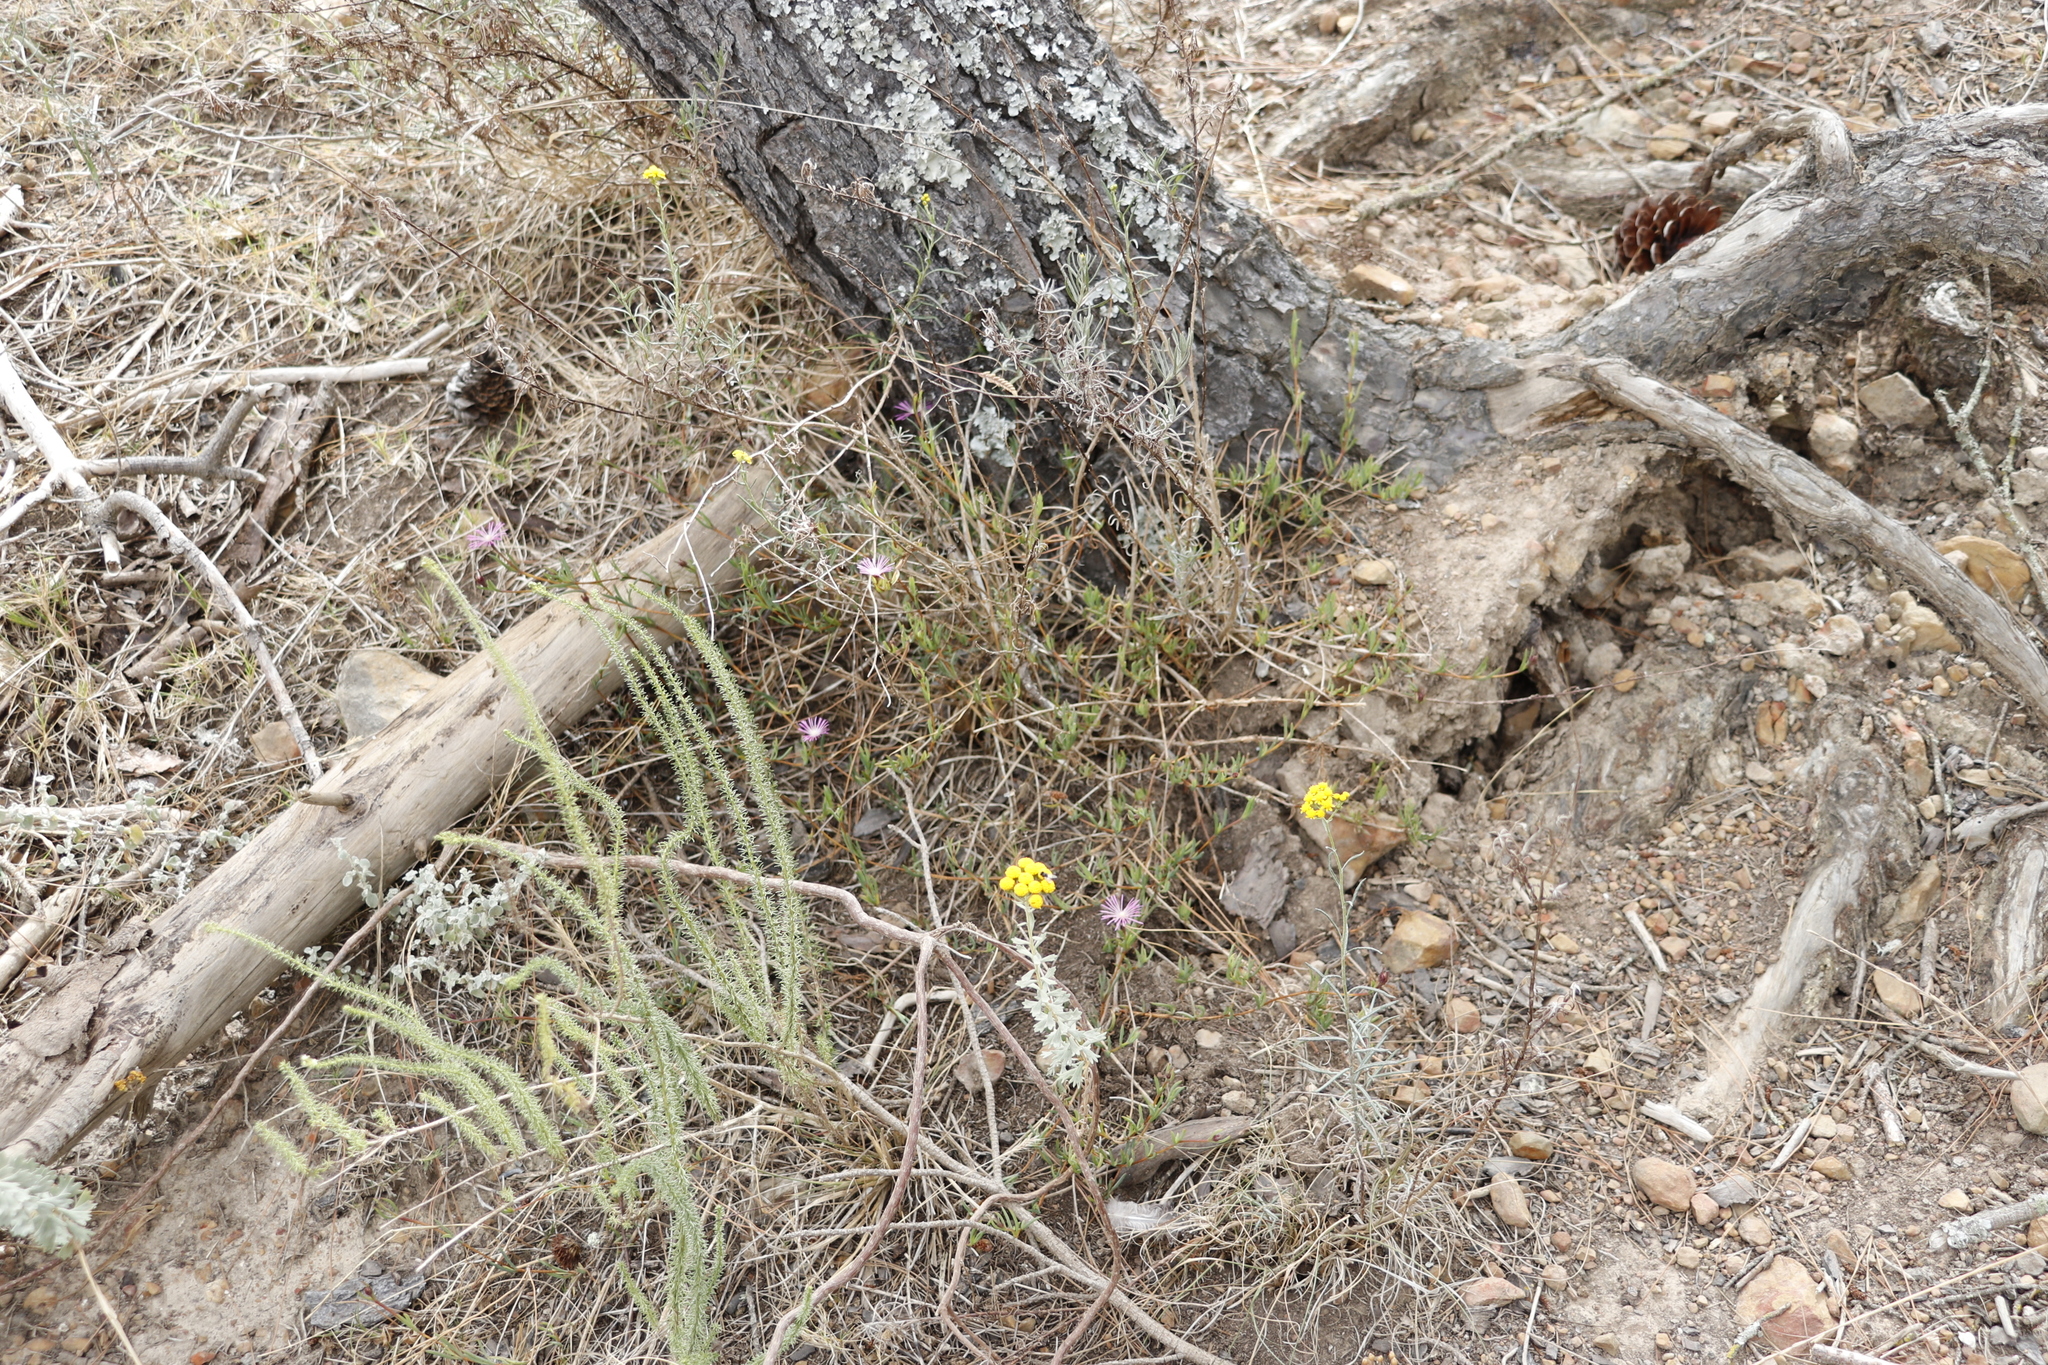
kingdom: Plantae
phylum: Tracheophyta
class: Magnoliopsida
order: Caryophyllales
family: Aizoaceae
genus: Erepsia
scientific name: Erepsia gracilis
